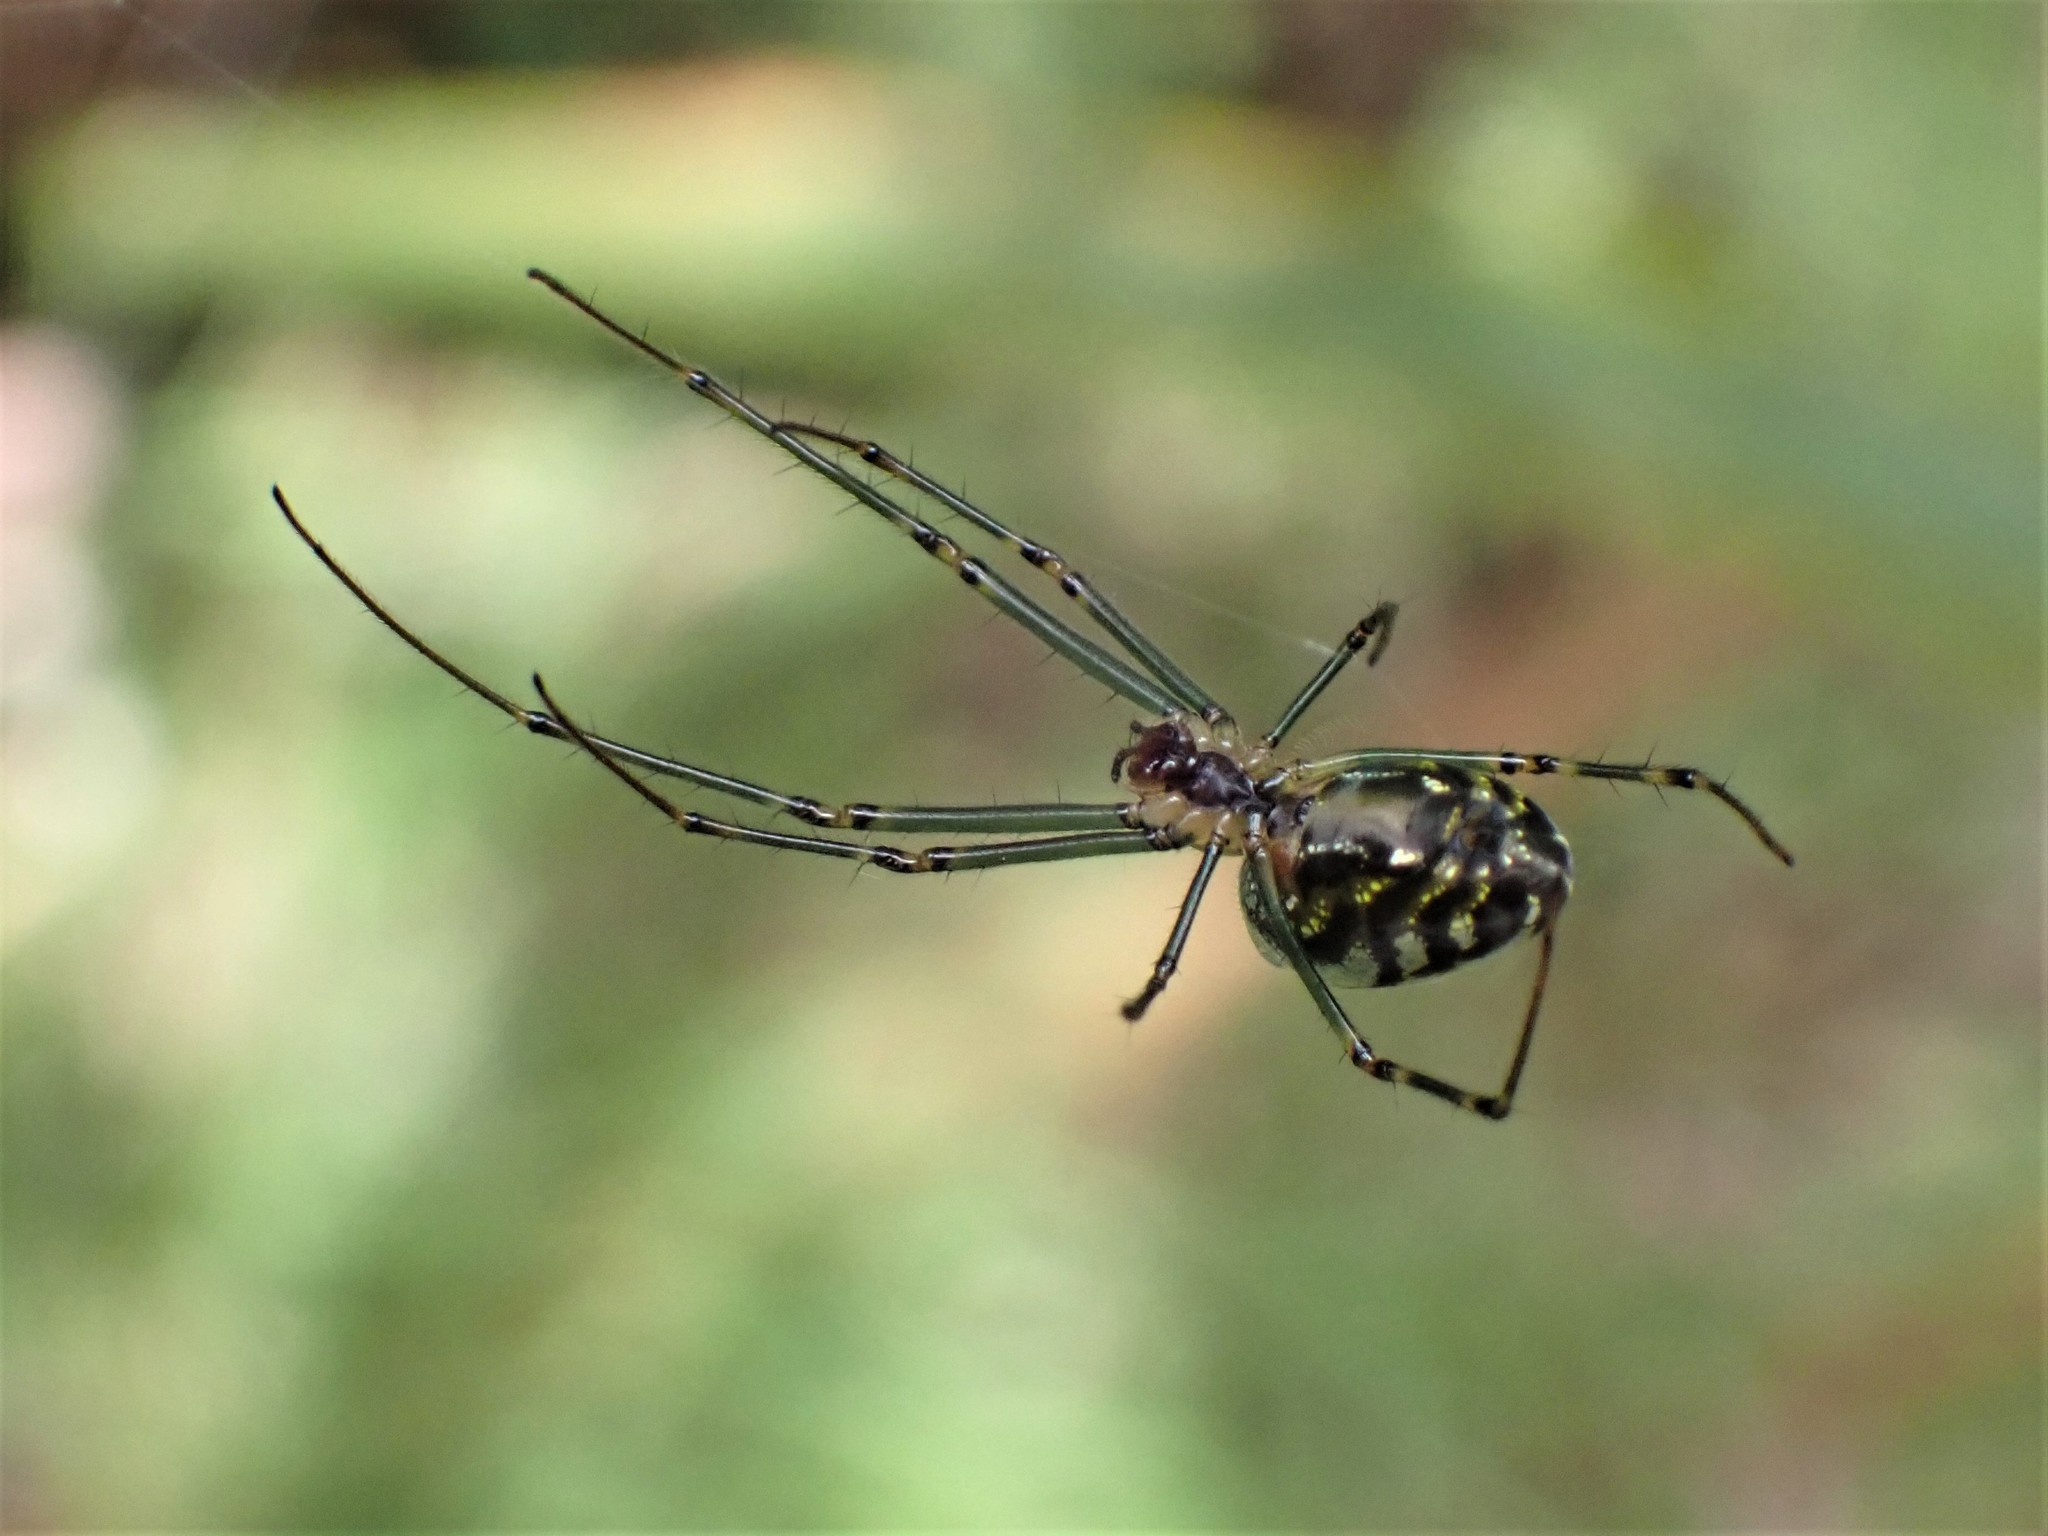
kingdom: Animalia
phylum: Arthropoda
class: Arachnida
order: Araneae
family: Tetragnathidae
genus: Leucauge
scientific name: Leucauge dromedaria
